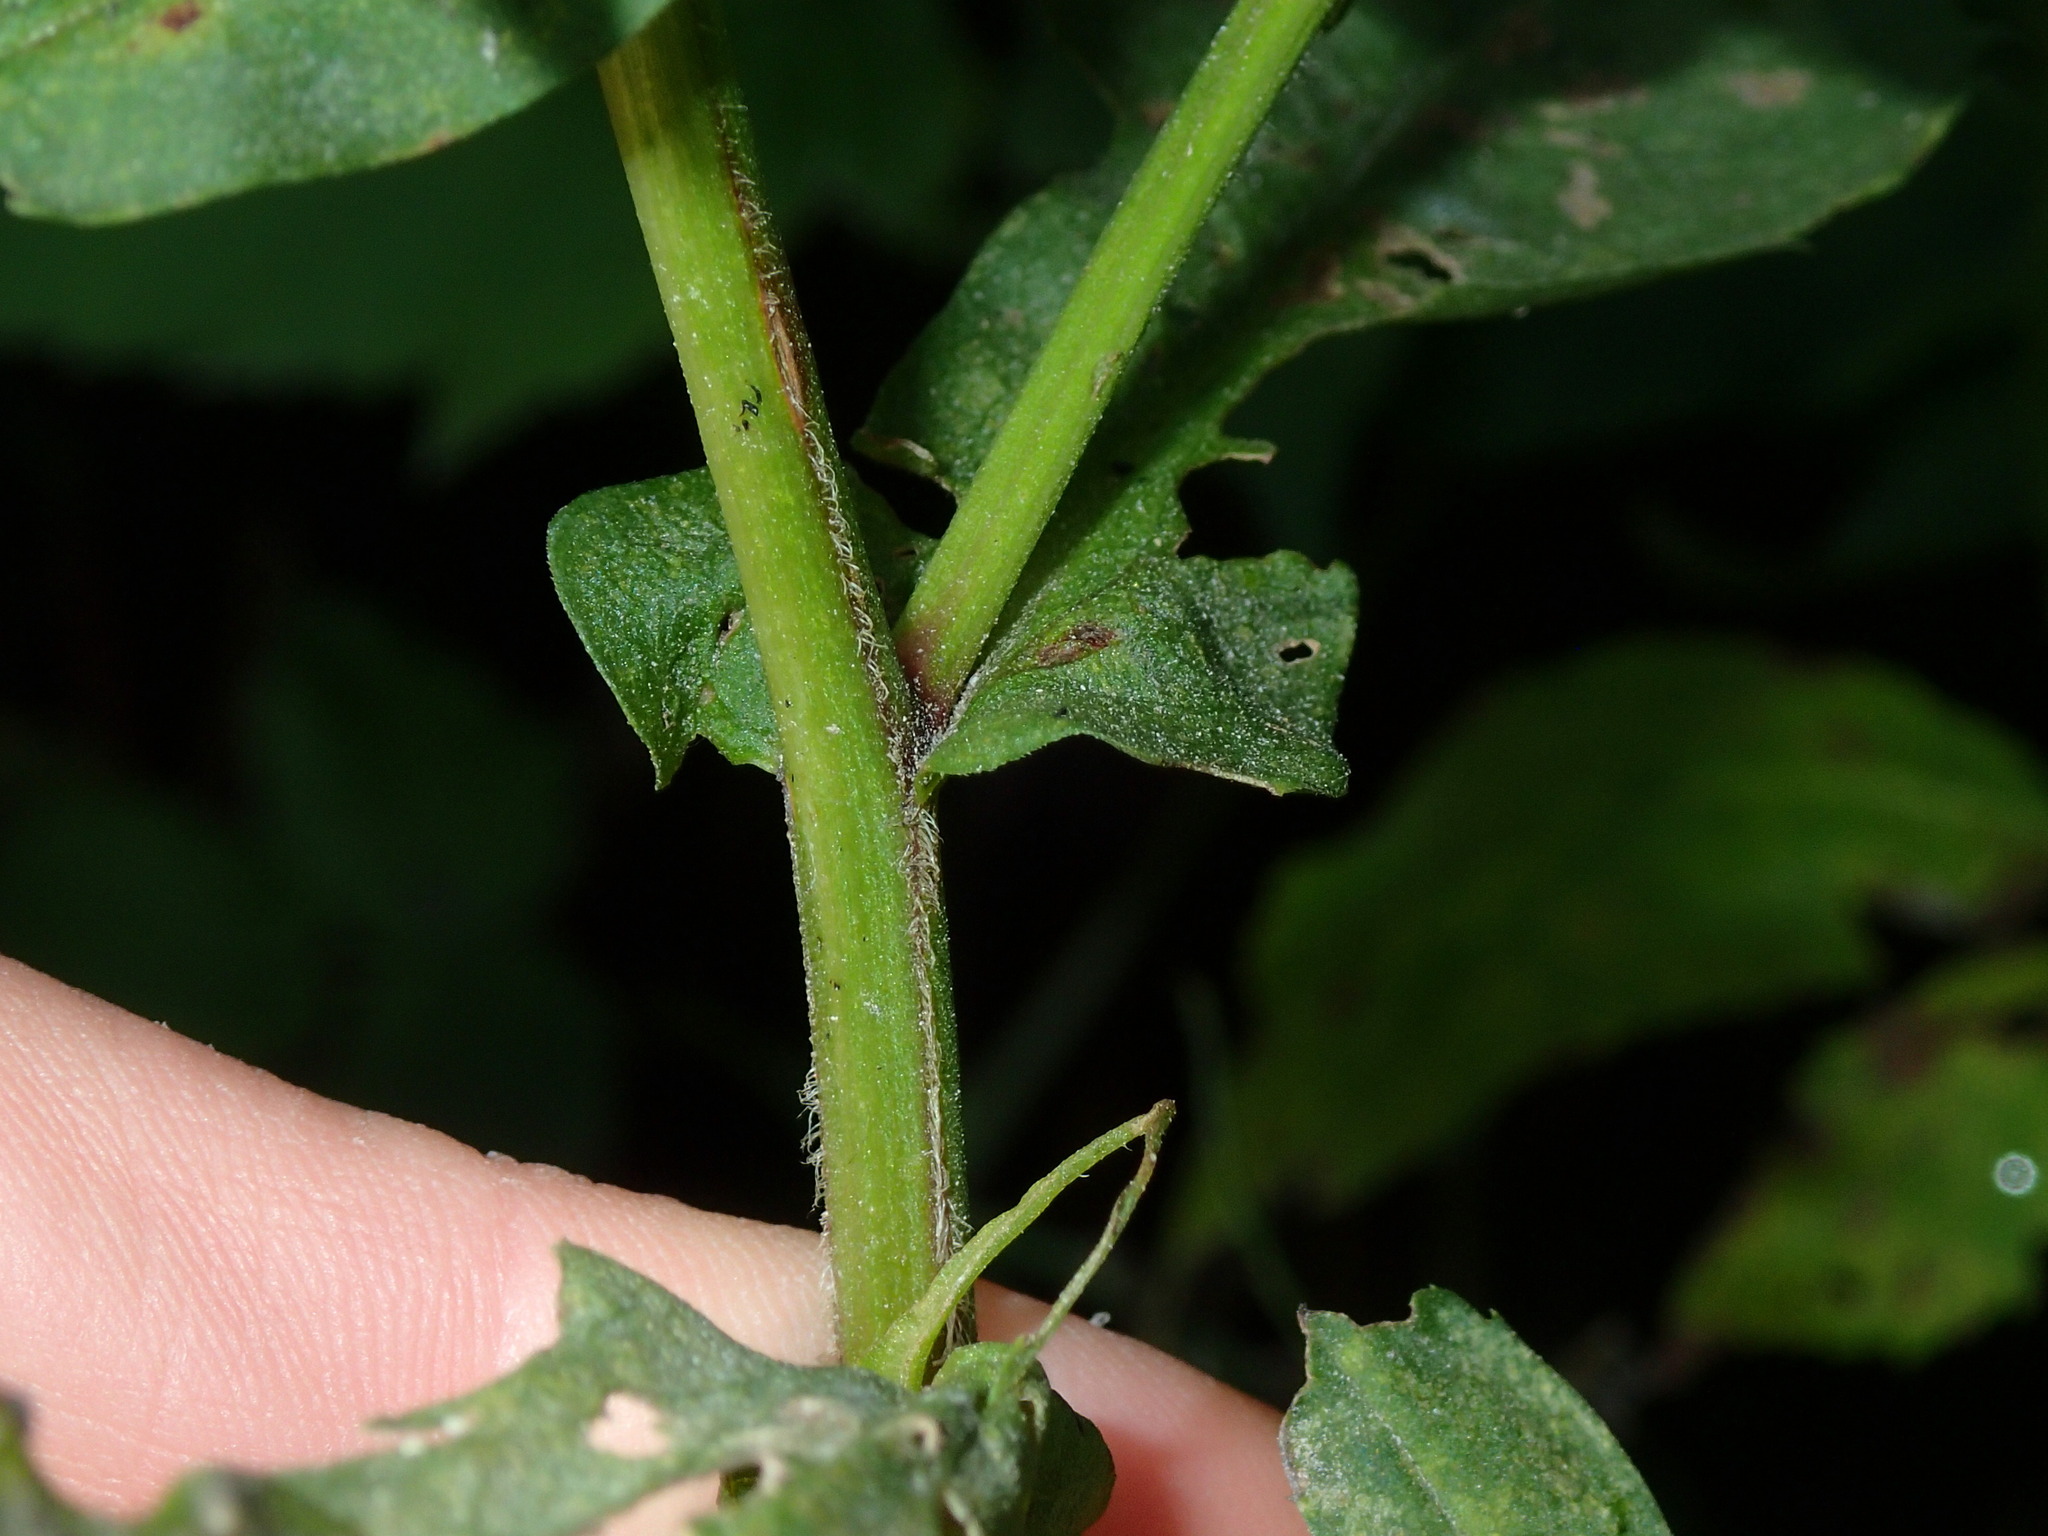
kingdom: Plantae
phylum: Tracheophyta
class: Magnoliopsida
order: Asterales
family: Asteraceae
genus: Symphyotrichum
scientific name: Symphyotrichum prenanthoides
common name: Crooked-stem aster
